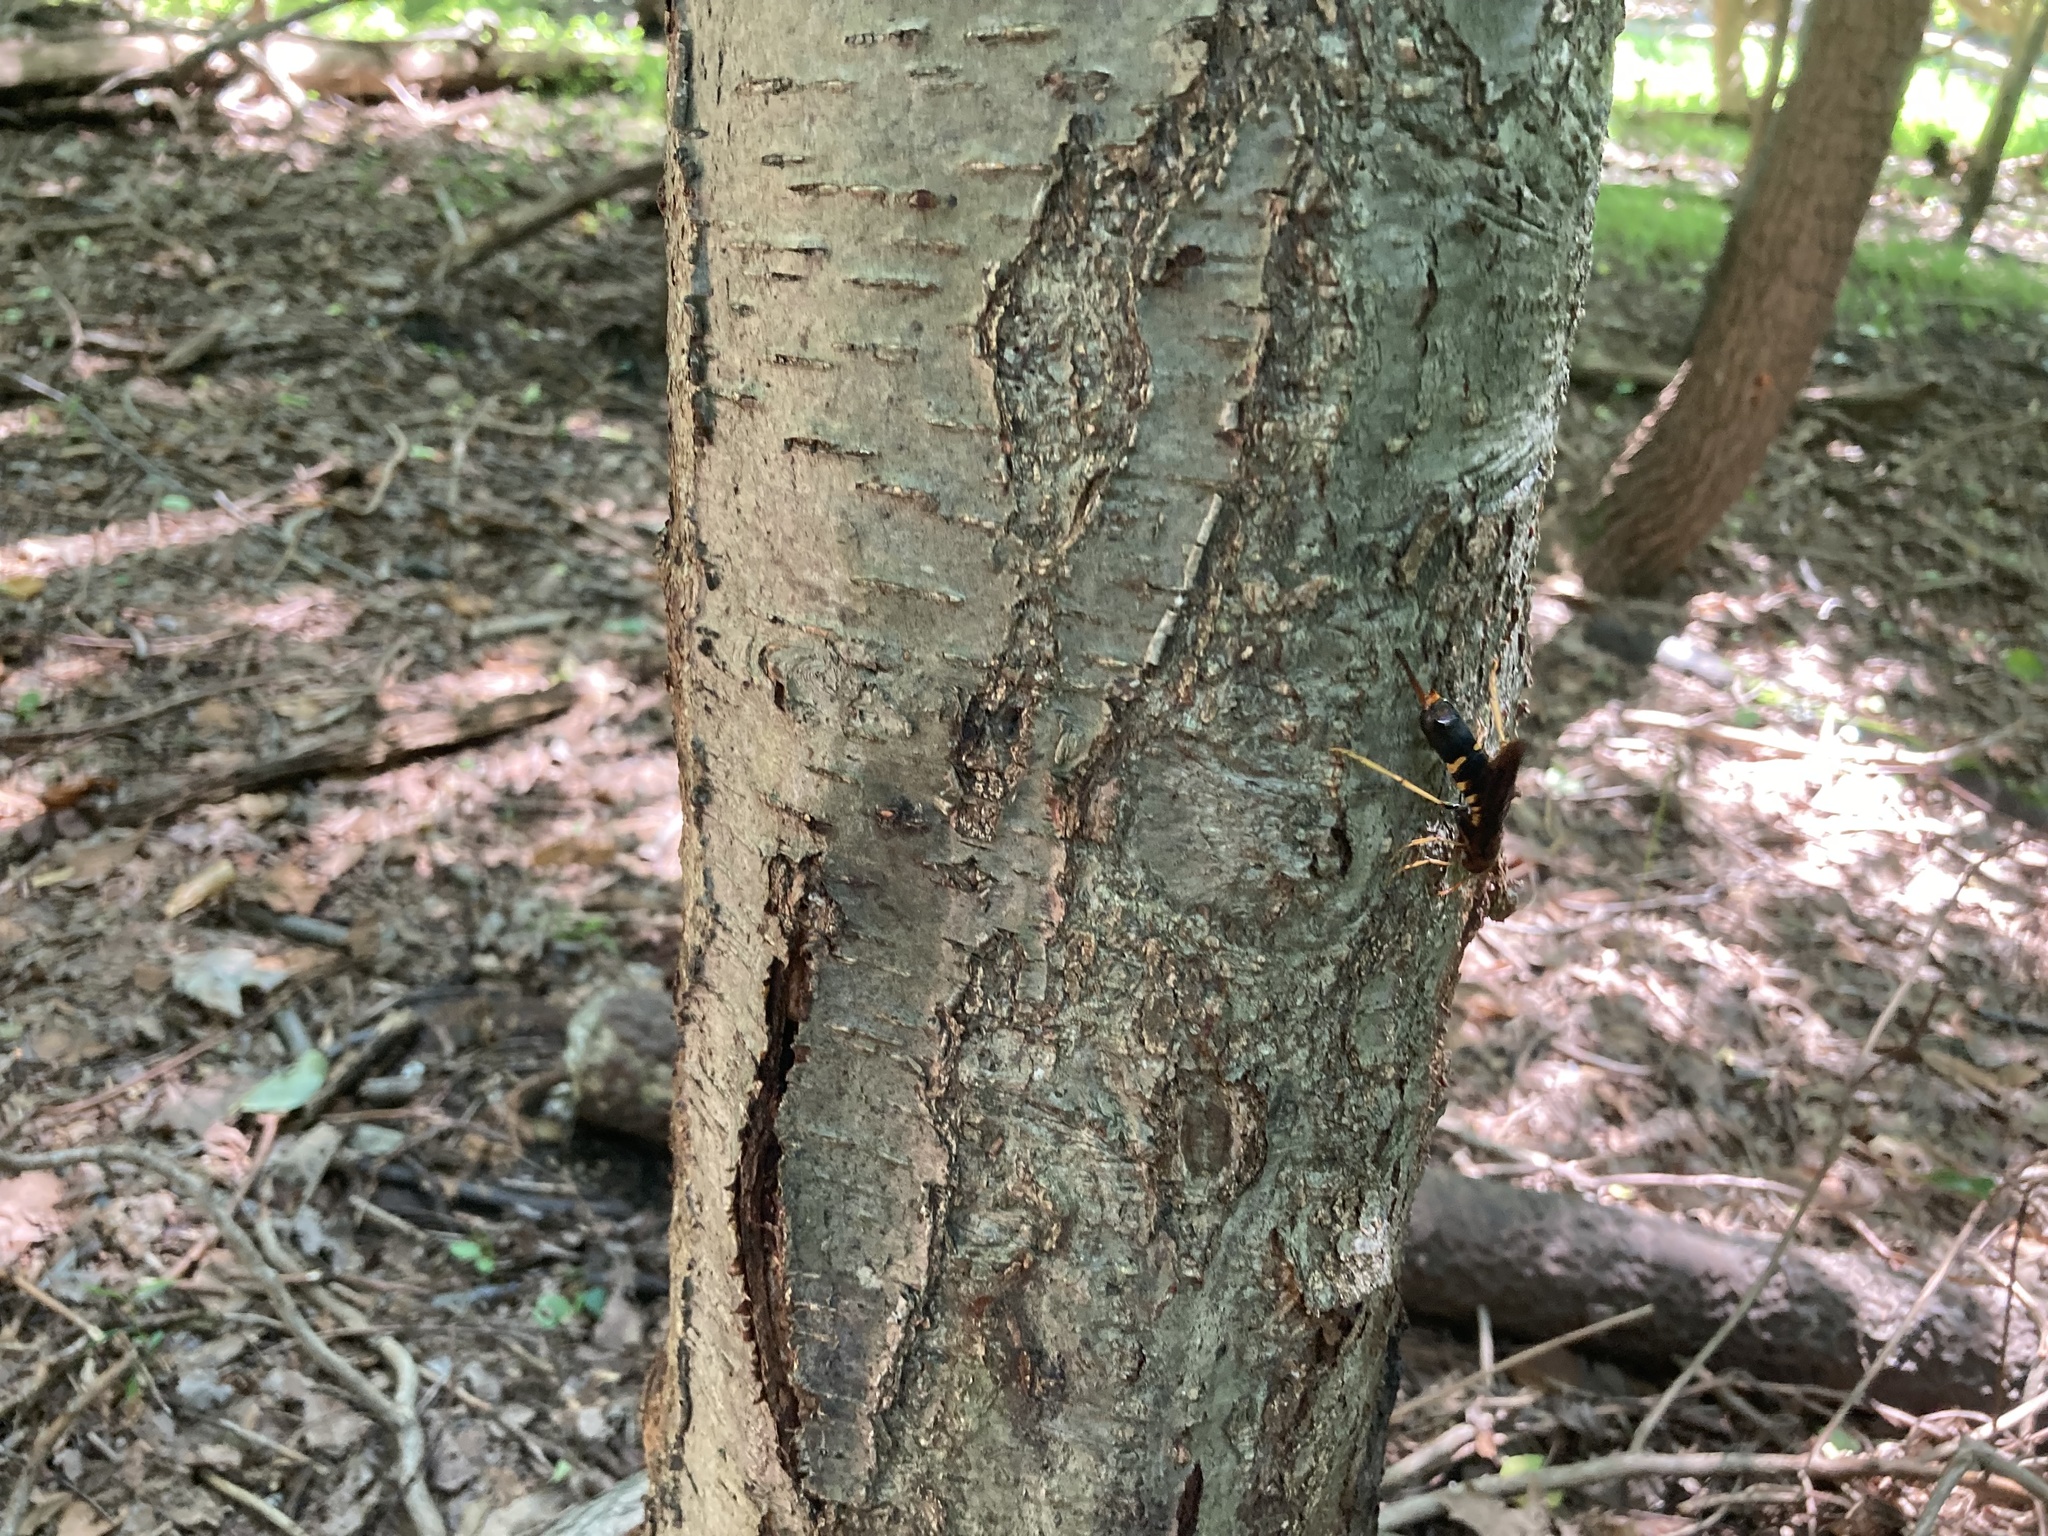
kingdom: Animalia
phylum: Arthropoda
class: Insecta
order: Hymenoptera
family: Siricidae
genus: Tremex
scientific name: Tremex columba
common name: Wasp
